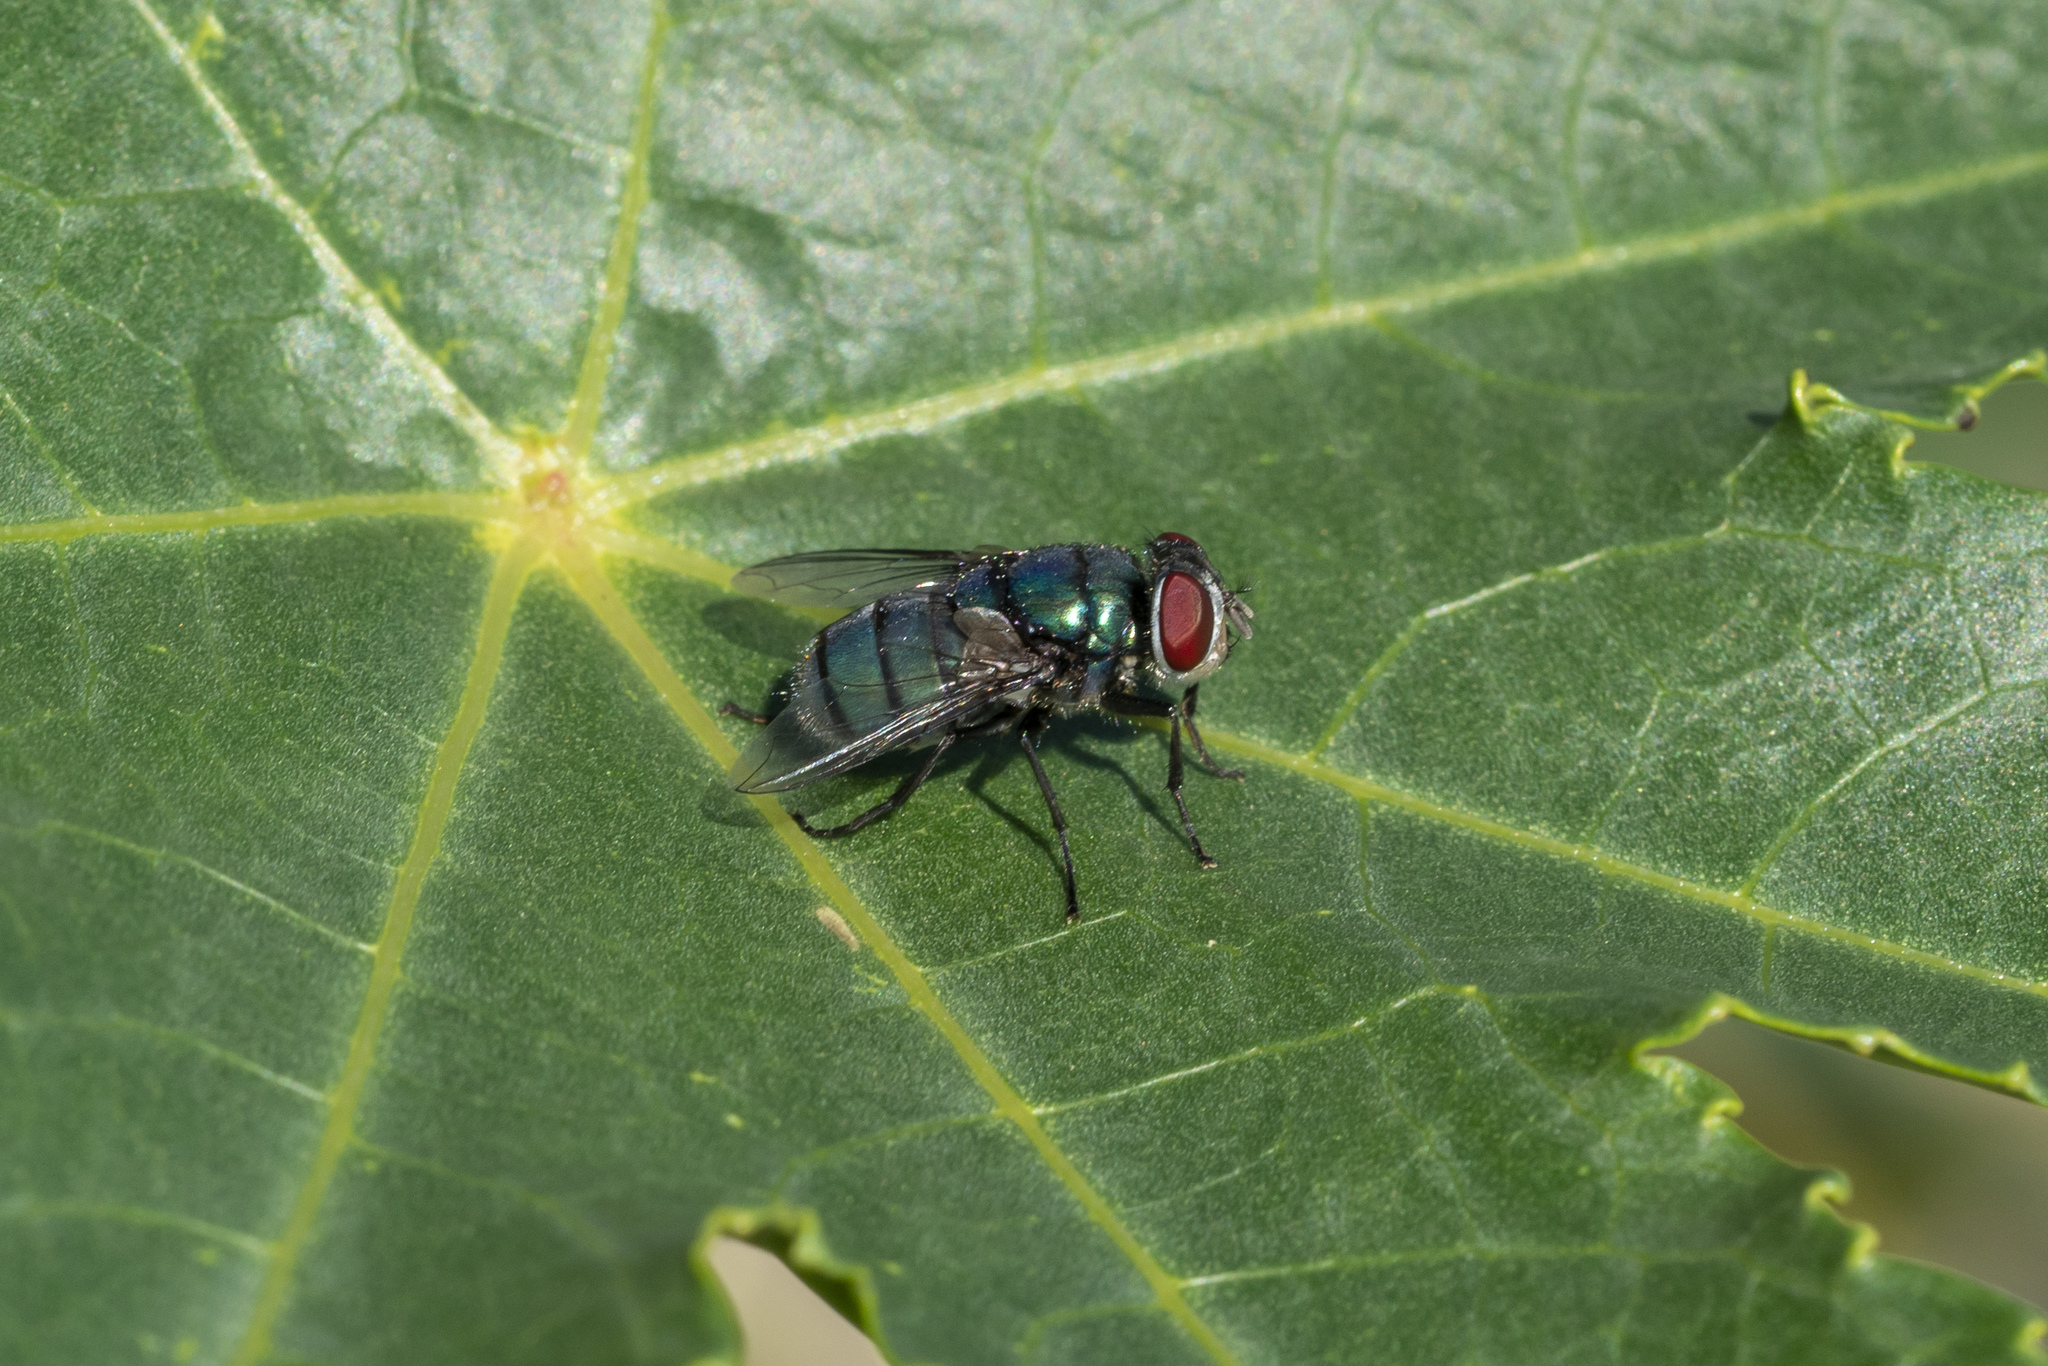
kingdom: Animalia
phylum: Arthropoda
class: Insecta
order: Diptera
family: Calliphoridae
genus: Chrysomya
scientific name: Chrysomya albiceps
